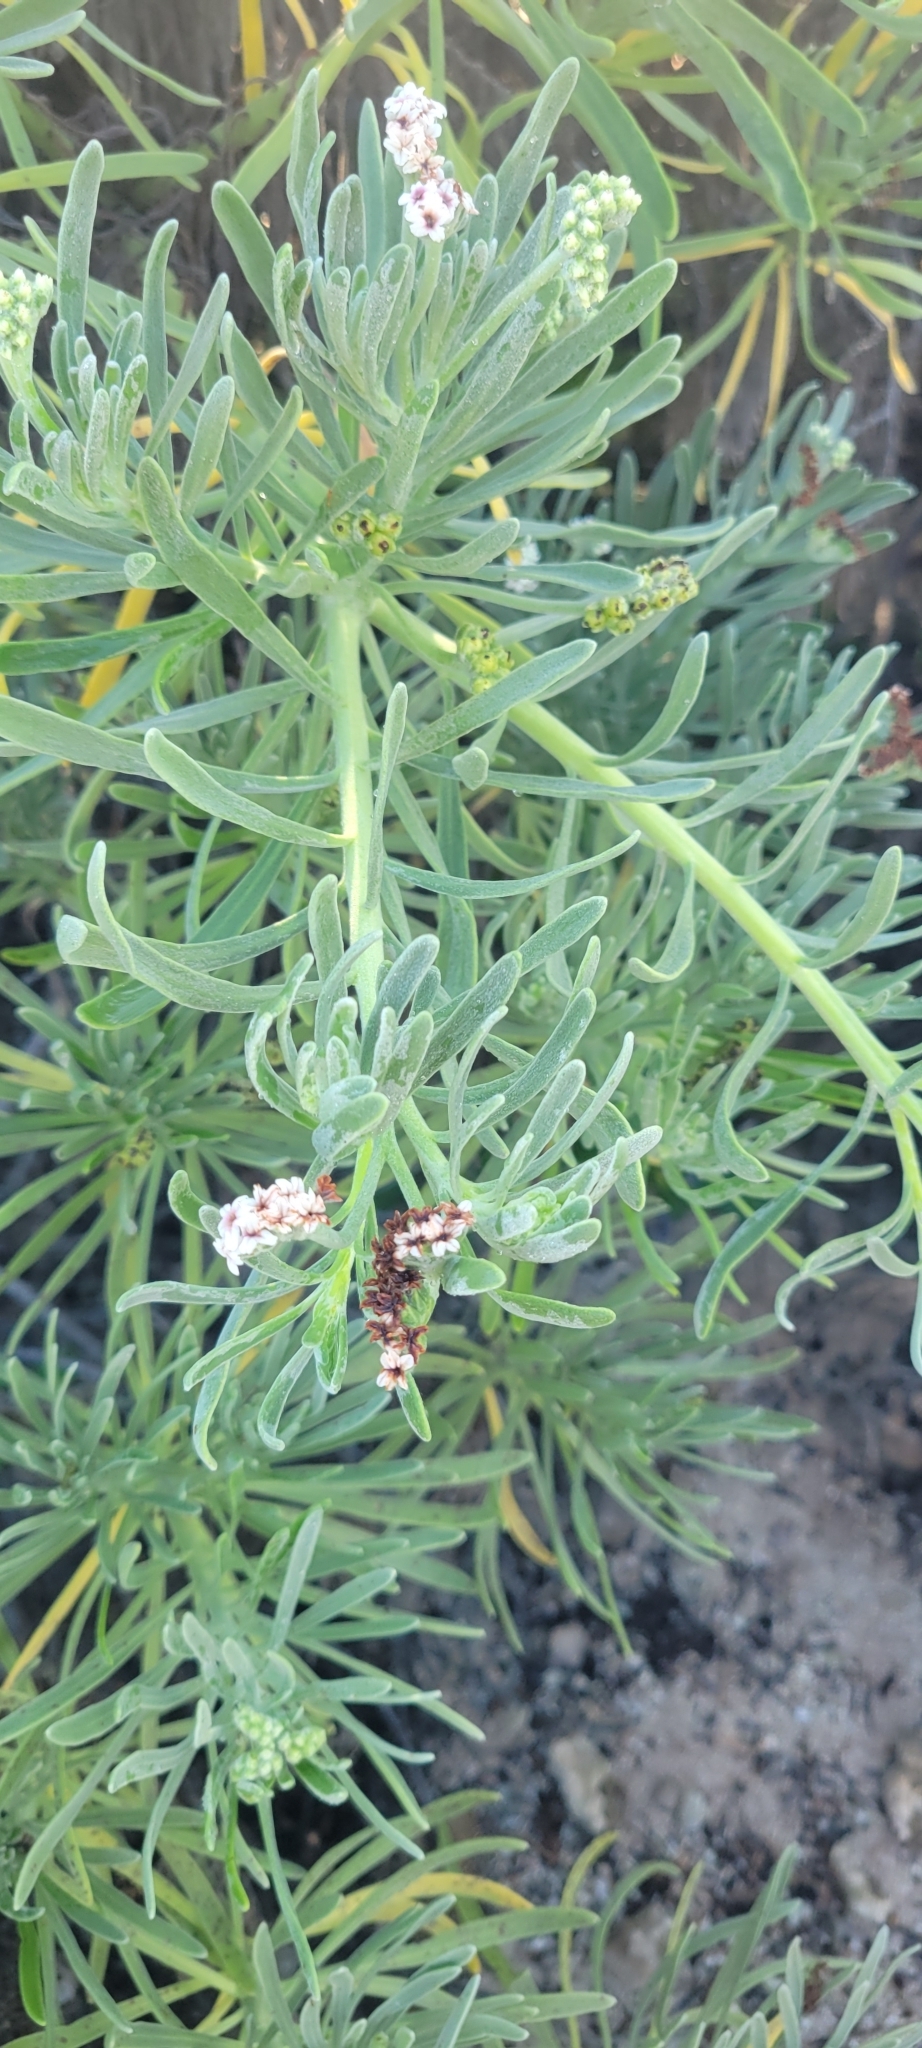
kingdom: Plantae
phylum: Tracheophyta
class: Magnoliopsida
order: Boraginales
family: Heliotropiaceae
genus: Tournefortia
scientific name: Tournefortia gnaphalodes
